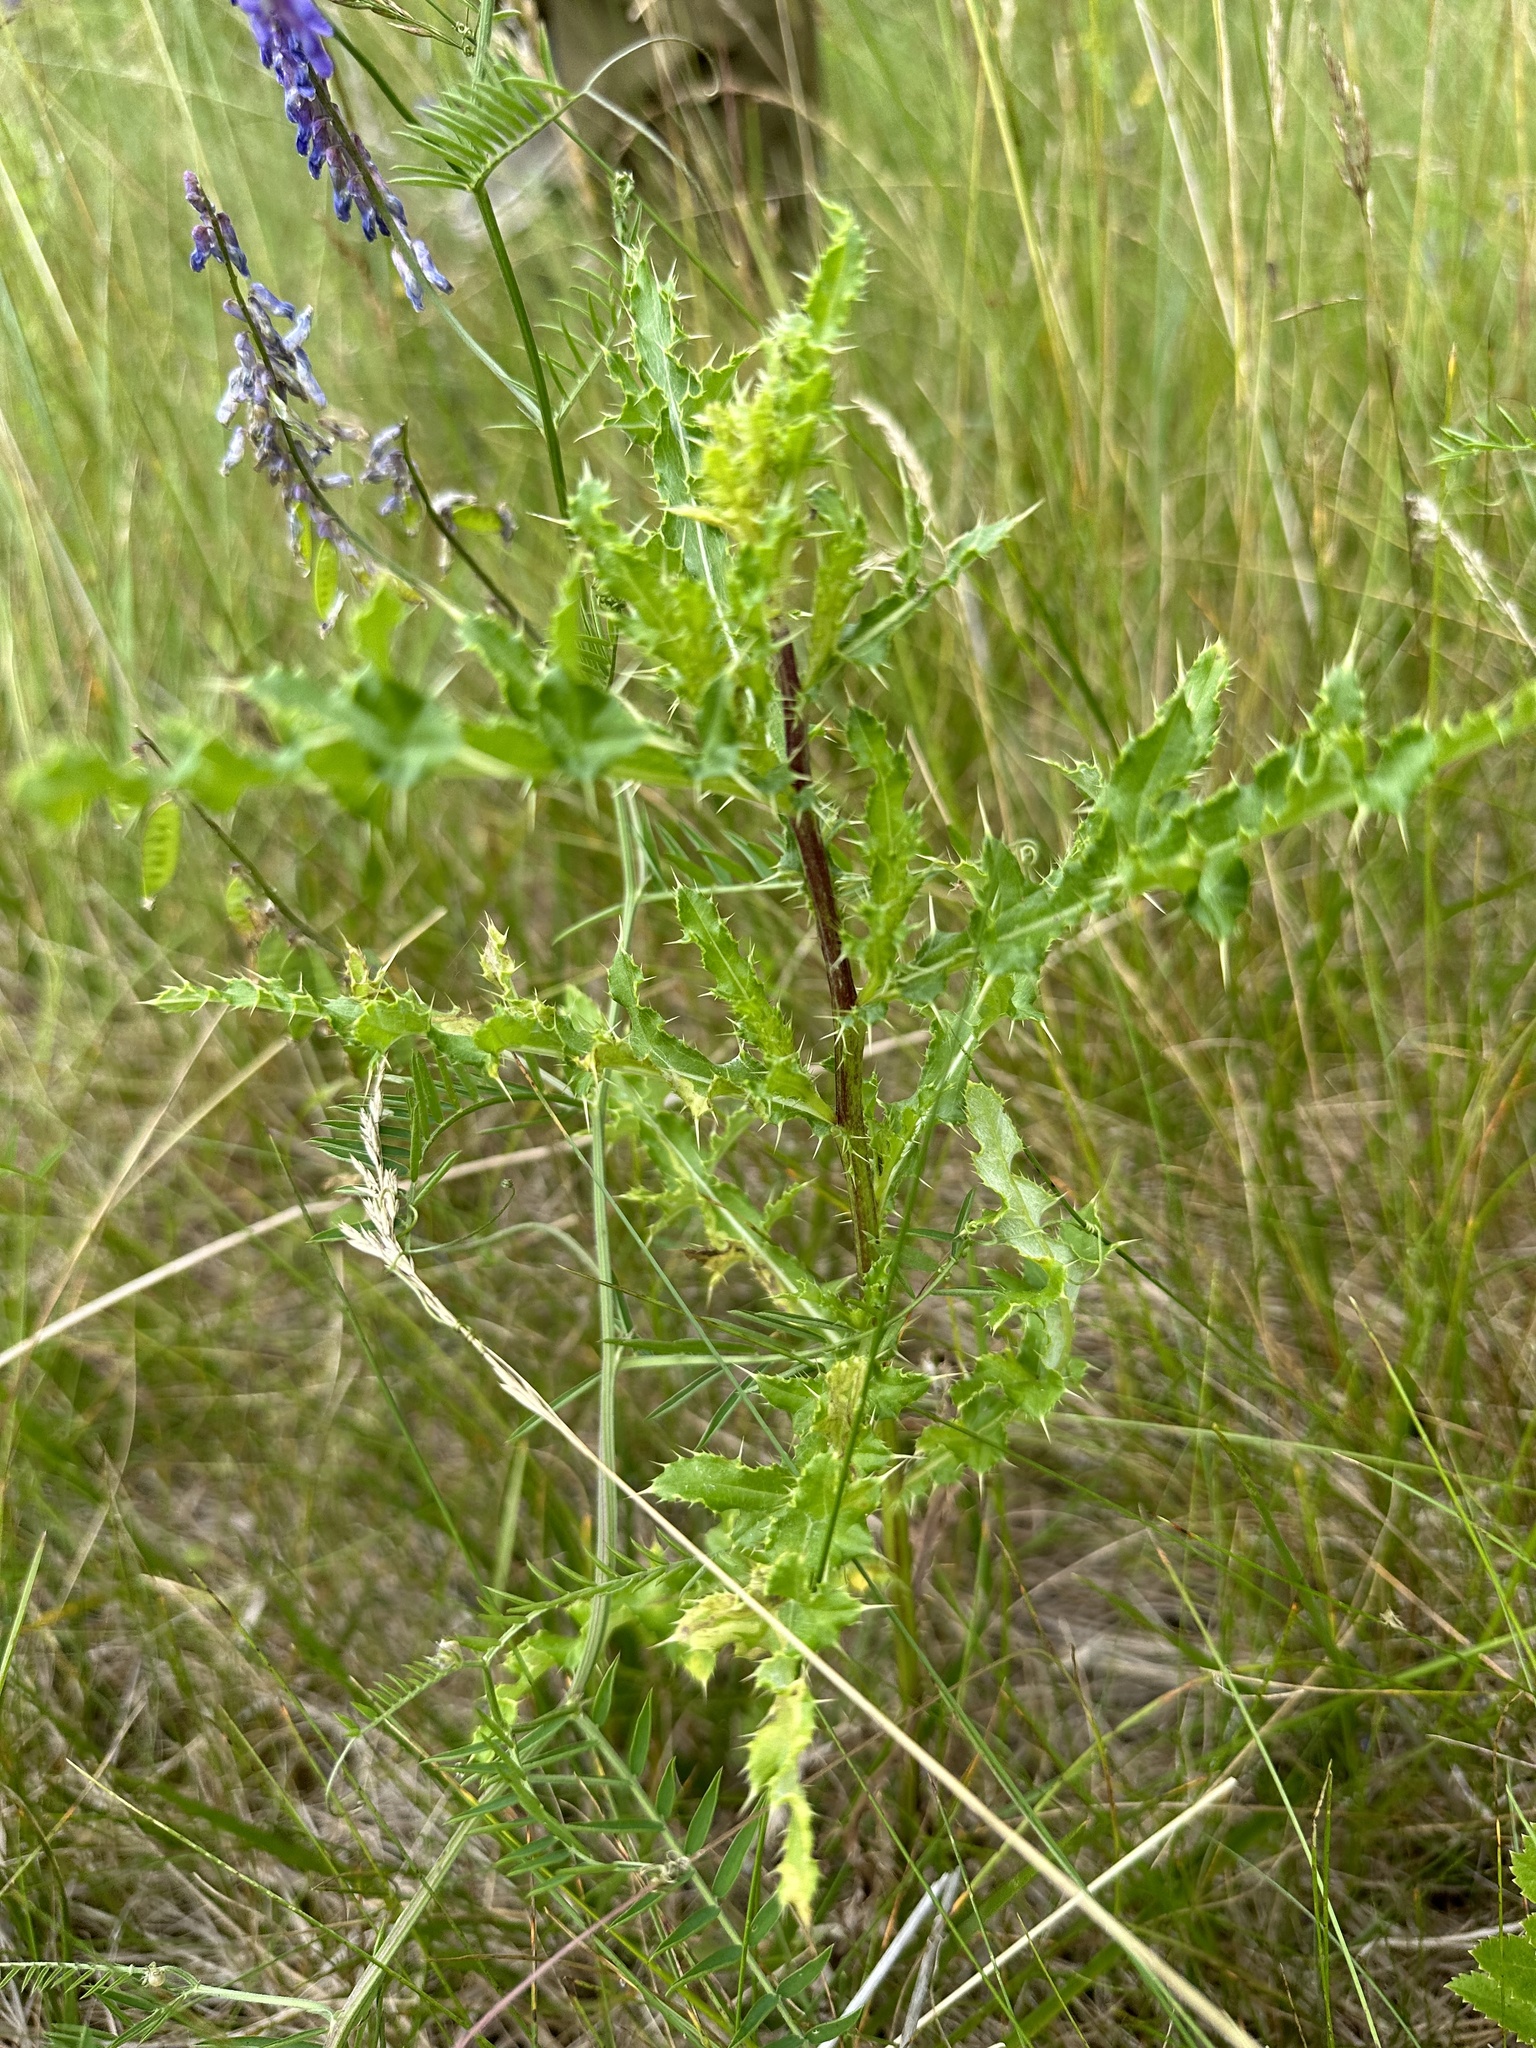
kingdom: Plantae
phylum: Tracheophyta
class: Magnoliopsida
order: Asterales
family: Asteraceae
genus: Cirsium
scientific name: Cirsium arvense
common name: Creeping thistle
